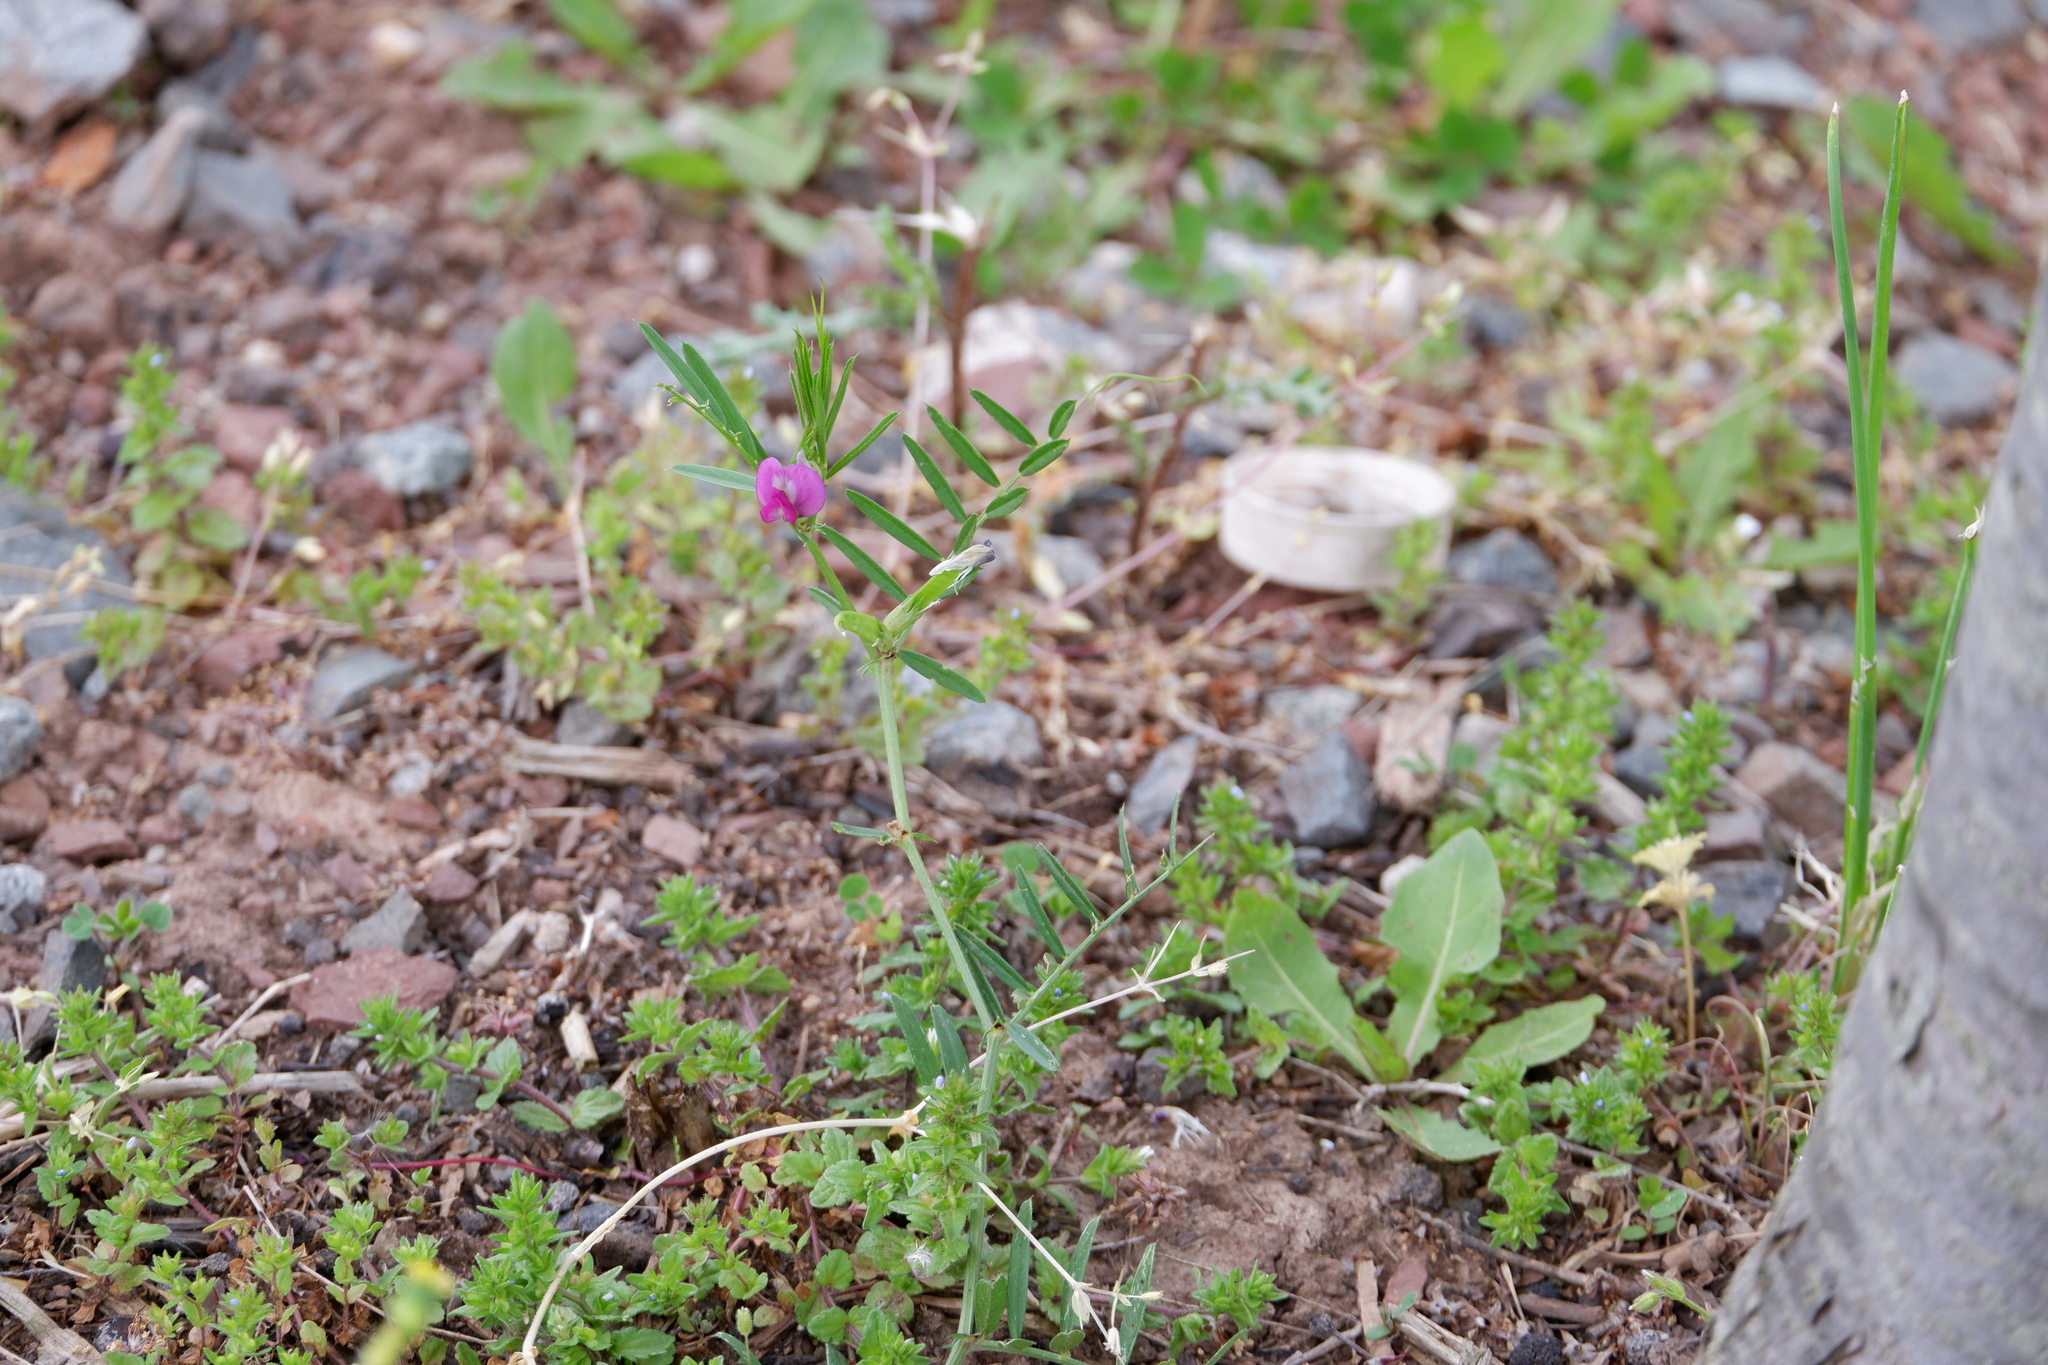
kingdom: Plantae
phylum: Tracheophyta
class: Magnoliopsida
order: Fabales
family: Fabaceae
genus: Vicia
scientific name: Vicia sativa
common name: Garden vetch
